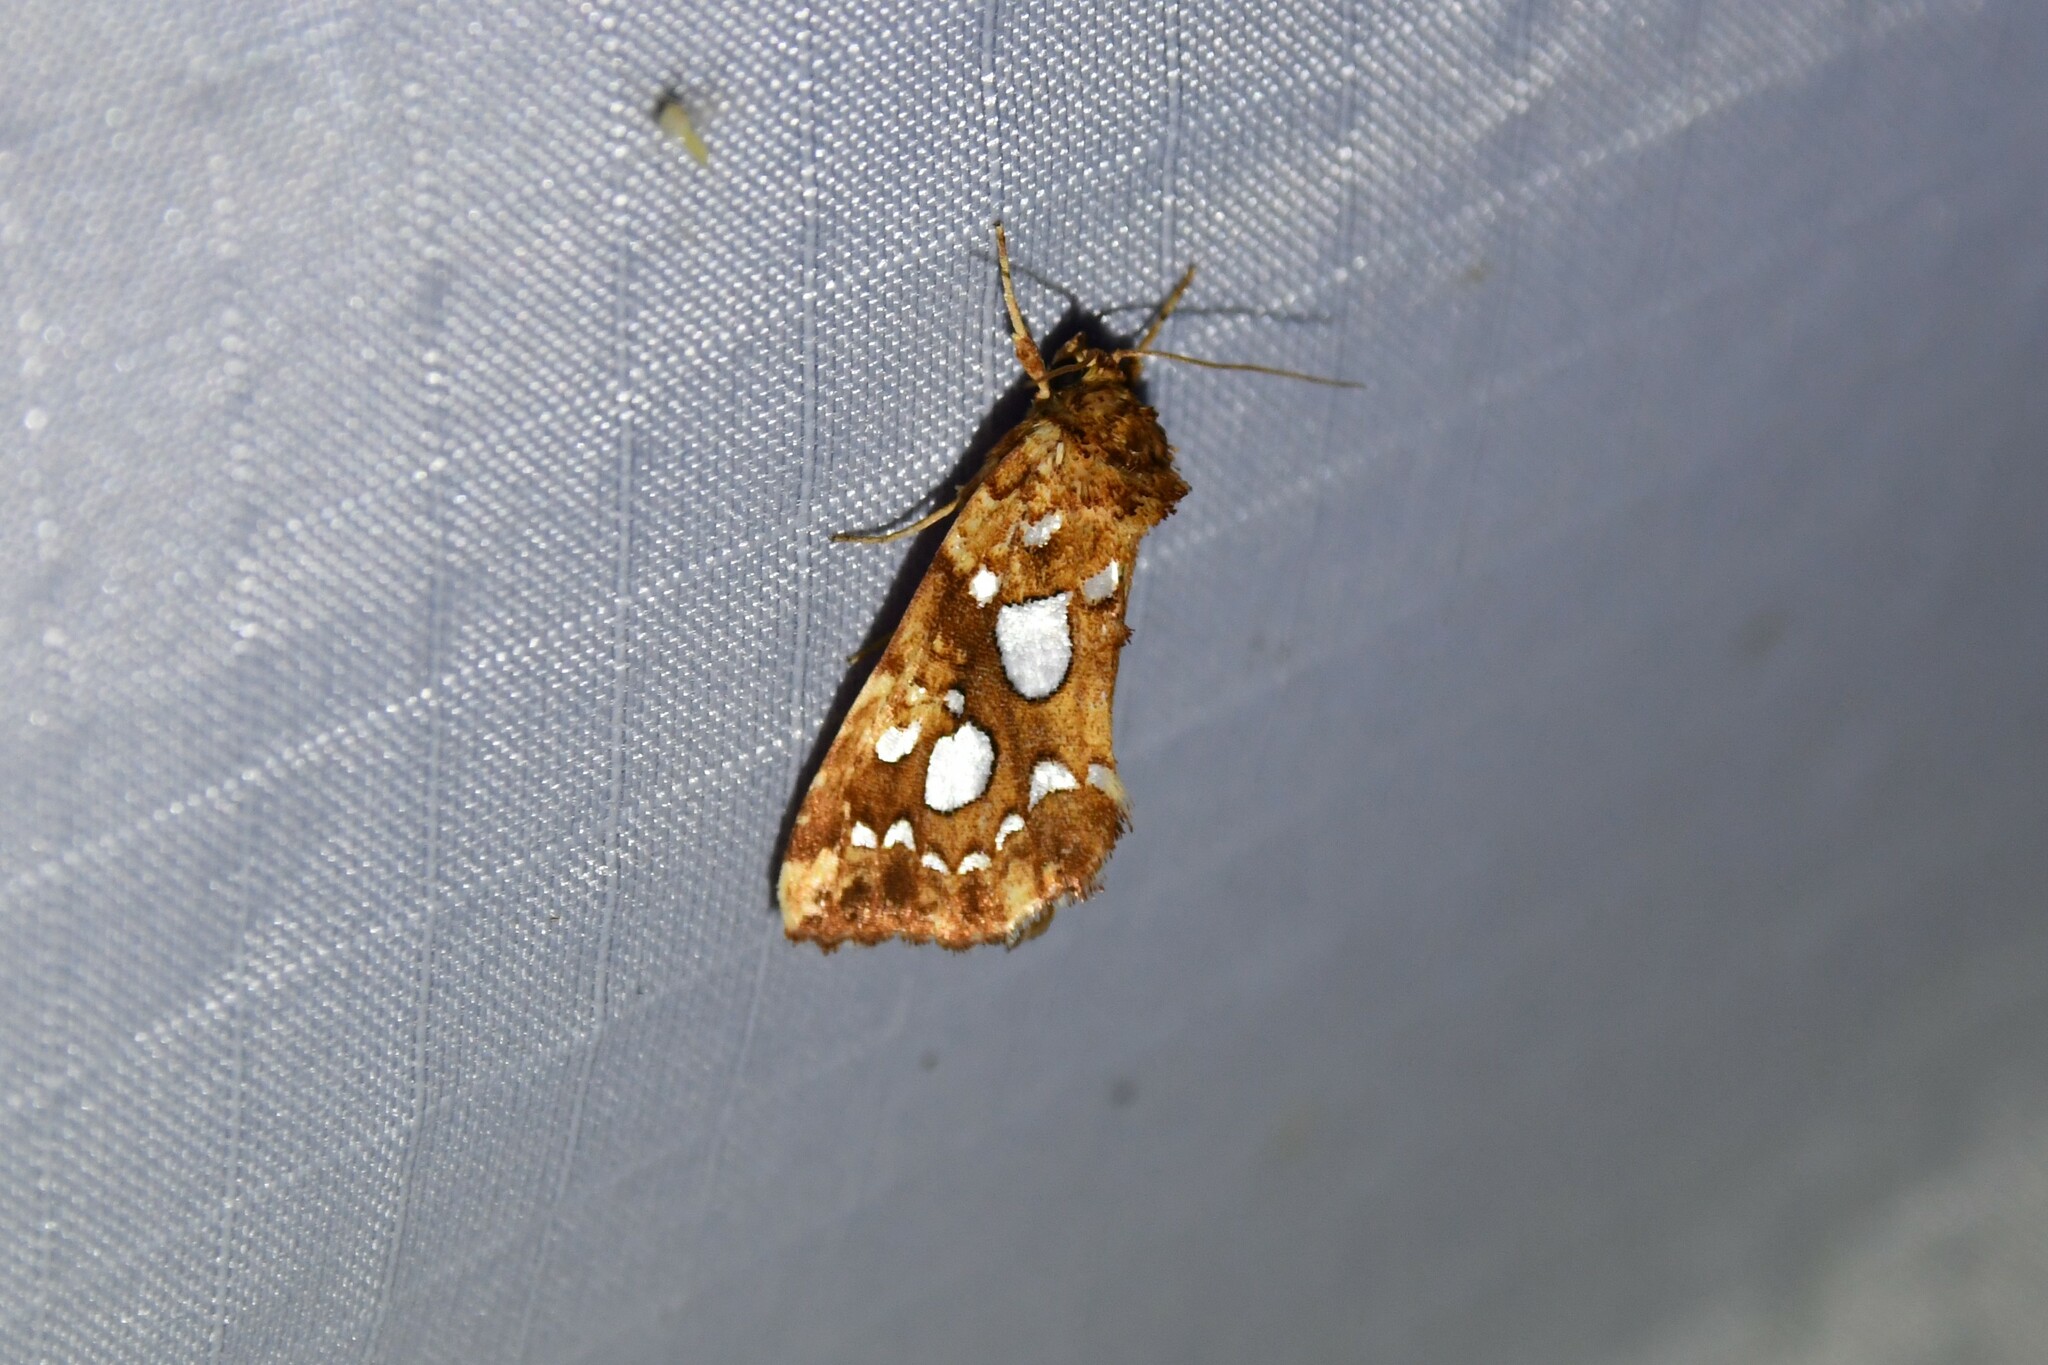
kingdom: Animalia
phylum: Arthropoda
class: Insecta
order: Lepidoptera
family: Noctuidae
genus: Callopistria
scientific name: Callopistria cordata
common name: Silver-spotted fern moth
